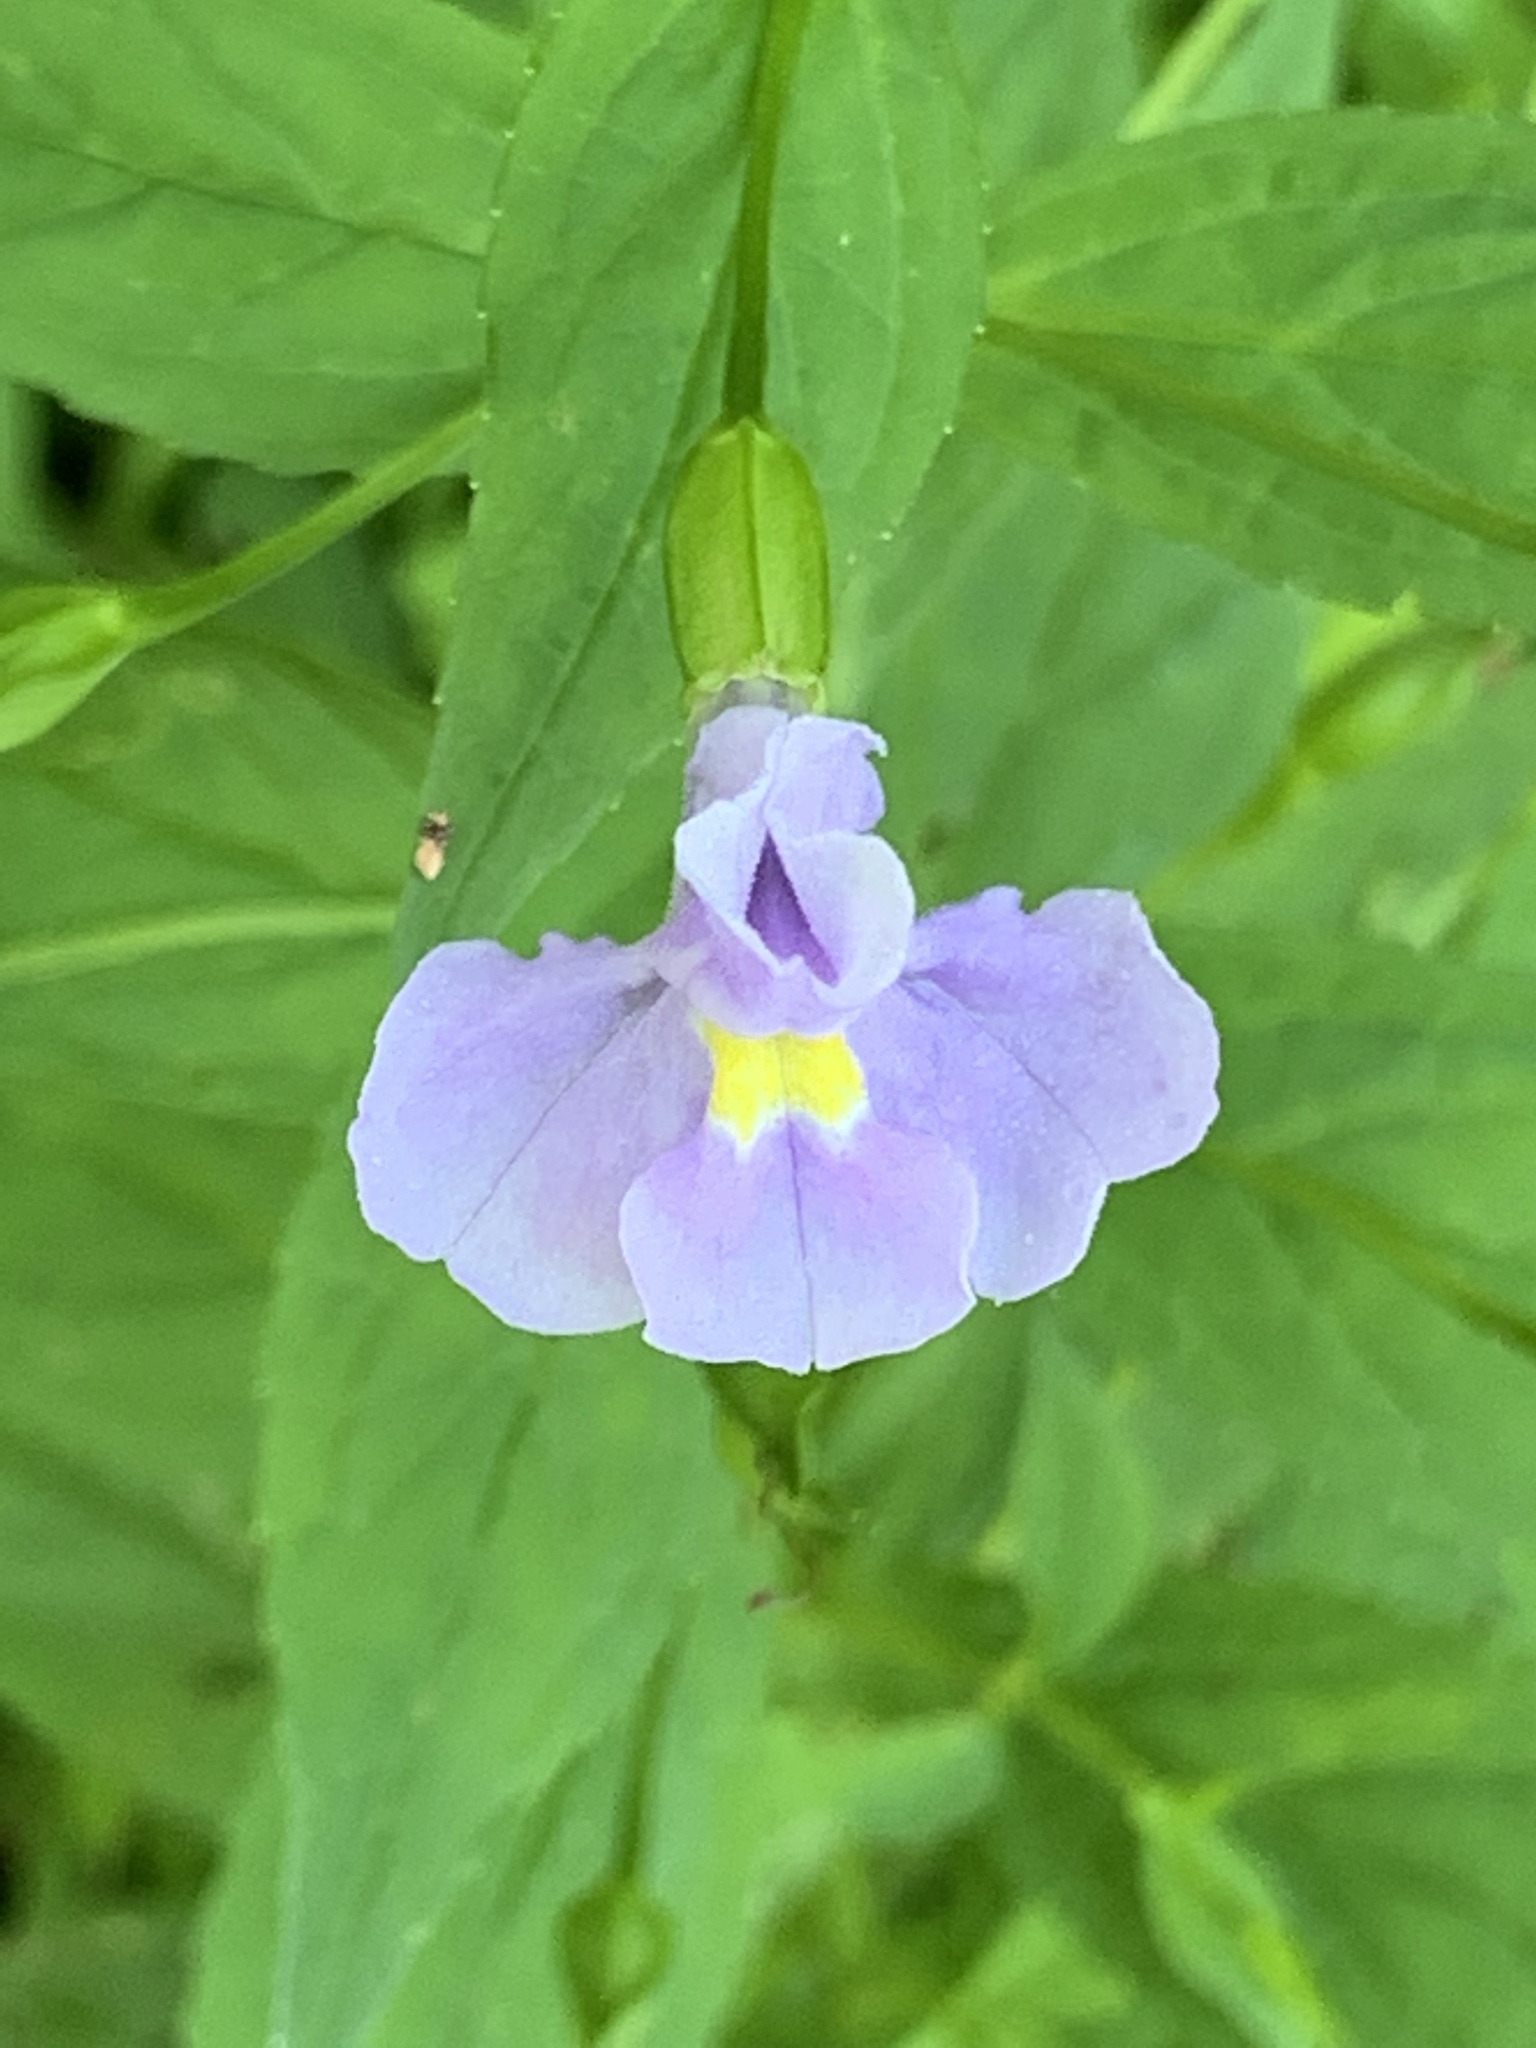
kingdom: Plantae
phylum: Tracheophyta
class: Magnoliopsida
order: Lamiales
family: Phrymaceae
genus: Mimulus
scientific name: Mimulus ringens
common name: Allegheny monkeyflower
